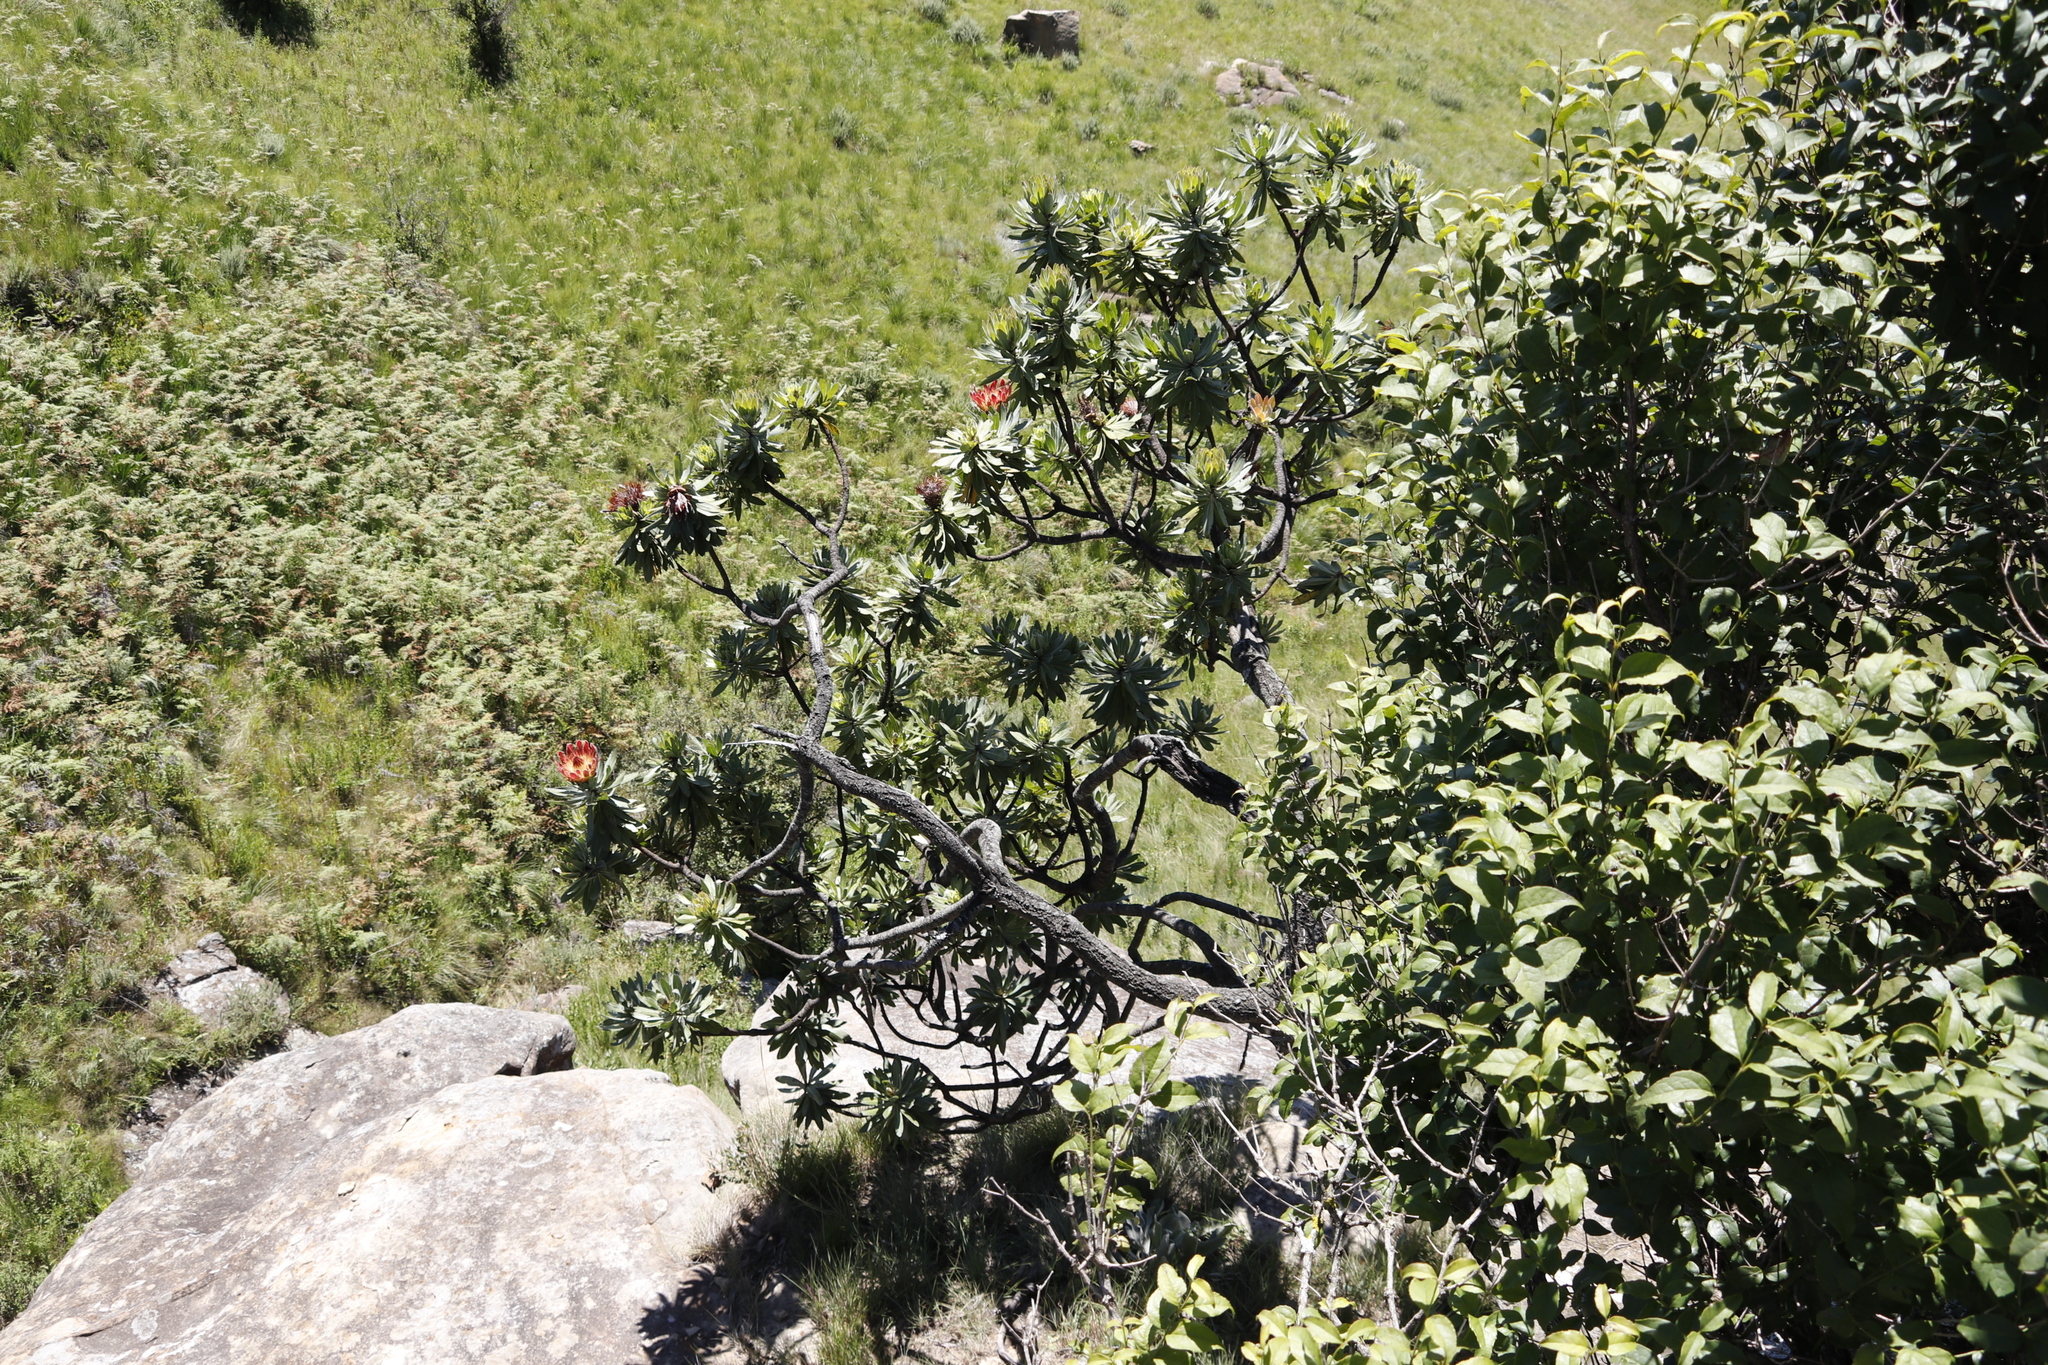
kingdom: Plantae
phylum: Tracheophyta
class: Magnoliopsida
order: Proteales
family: Proteaceae
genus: Protea
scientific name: Protea roupelliae
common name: Silver sugarbush
